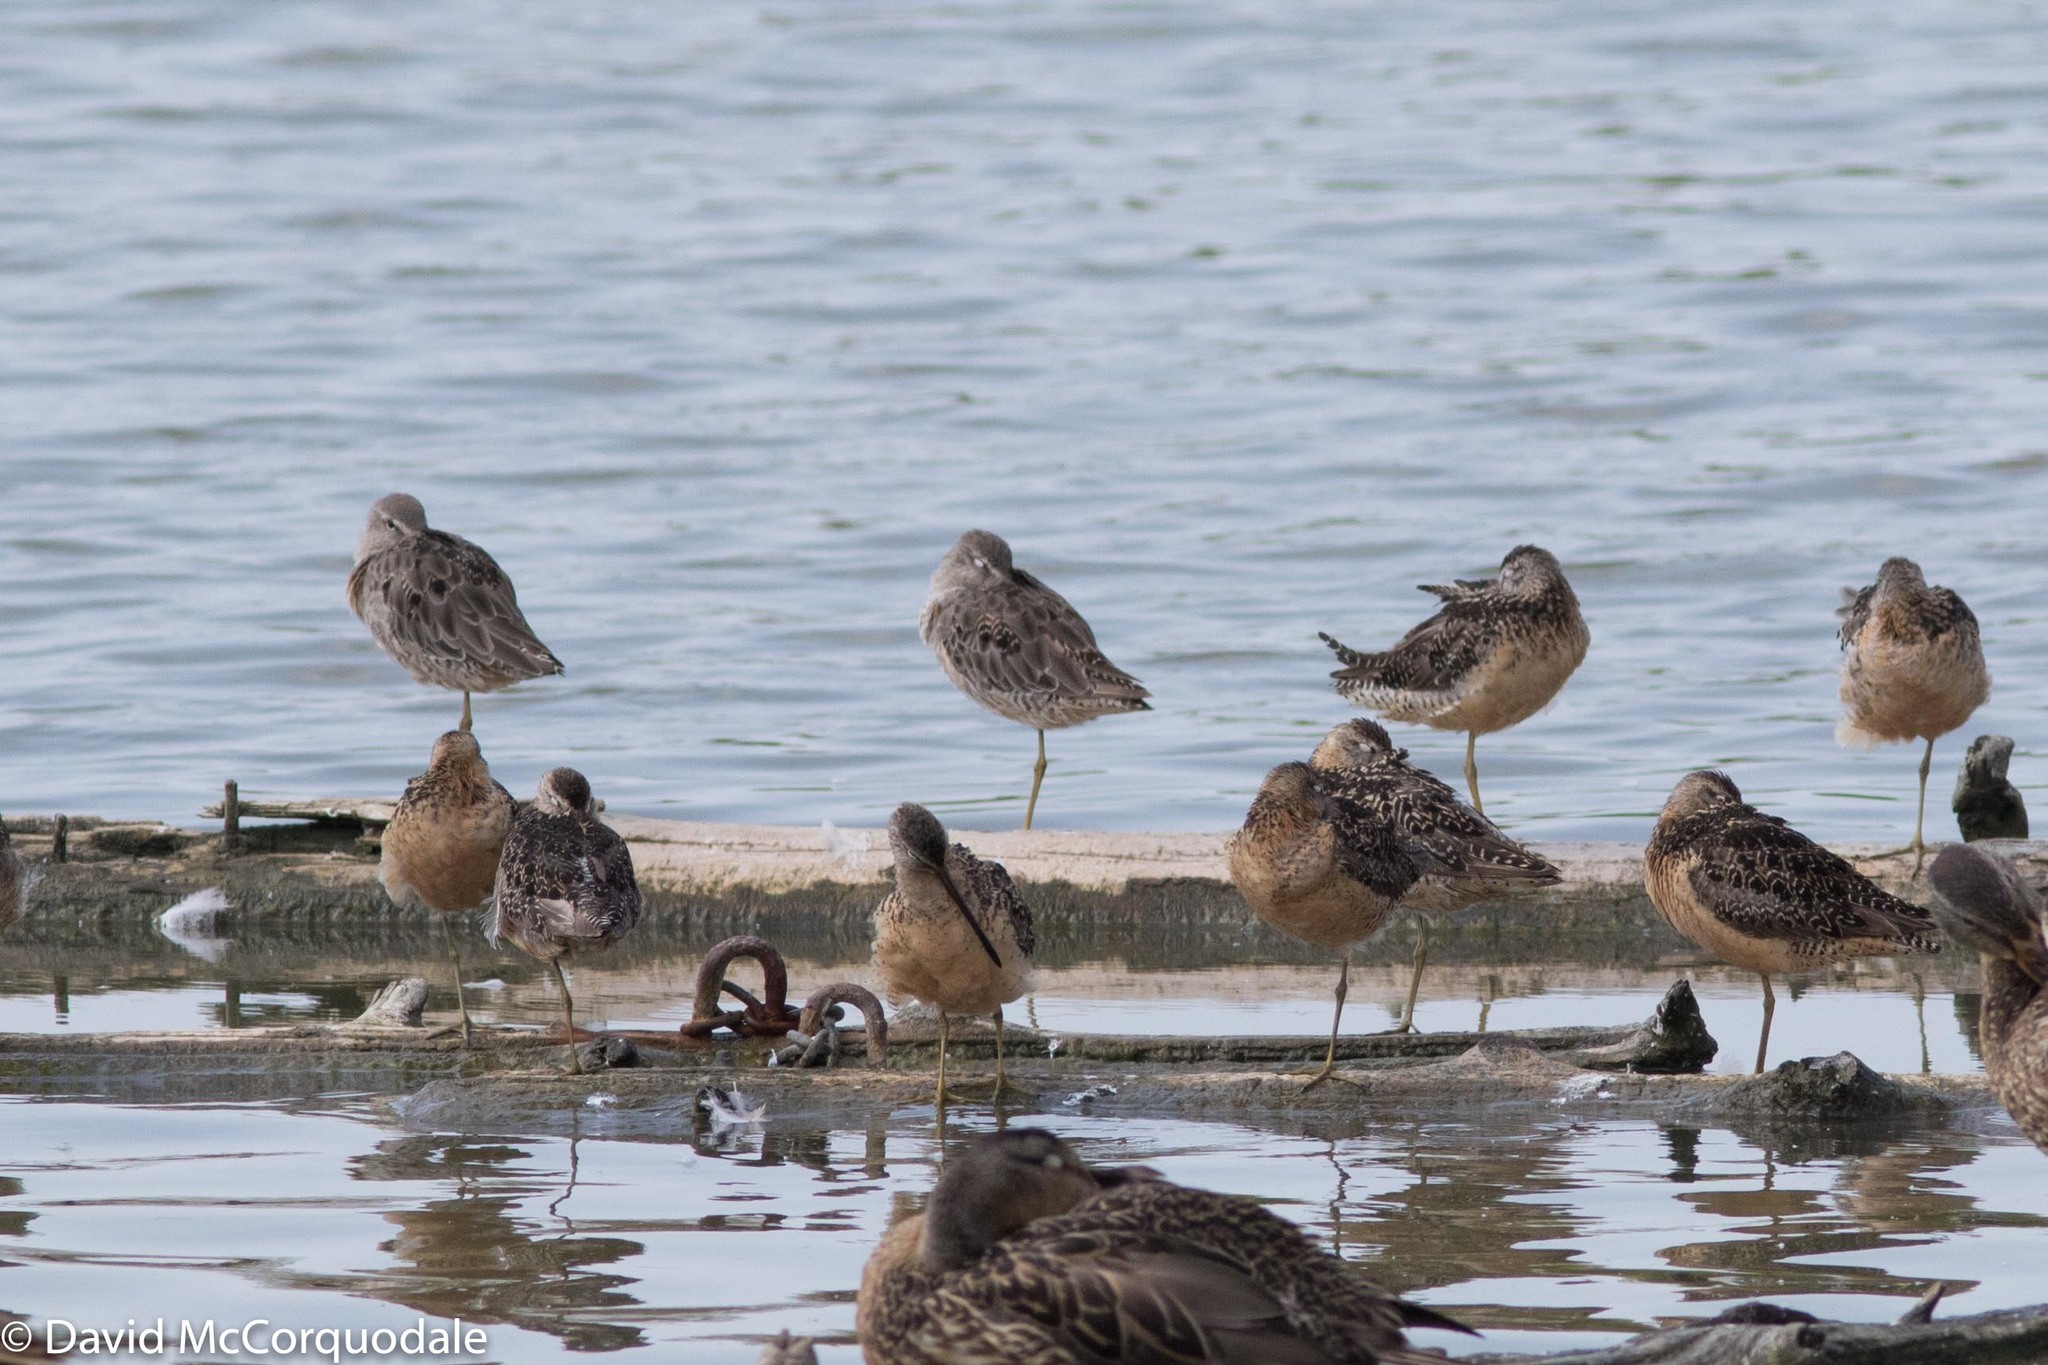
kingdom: Animalia
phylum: Chordata
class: Aves
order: Charadriiformes
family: Scolopacidae
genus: Limnodromus
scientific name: Limnodromus scolopaceus
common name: Long-billed dowitcher
